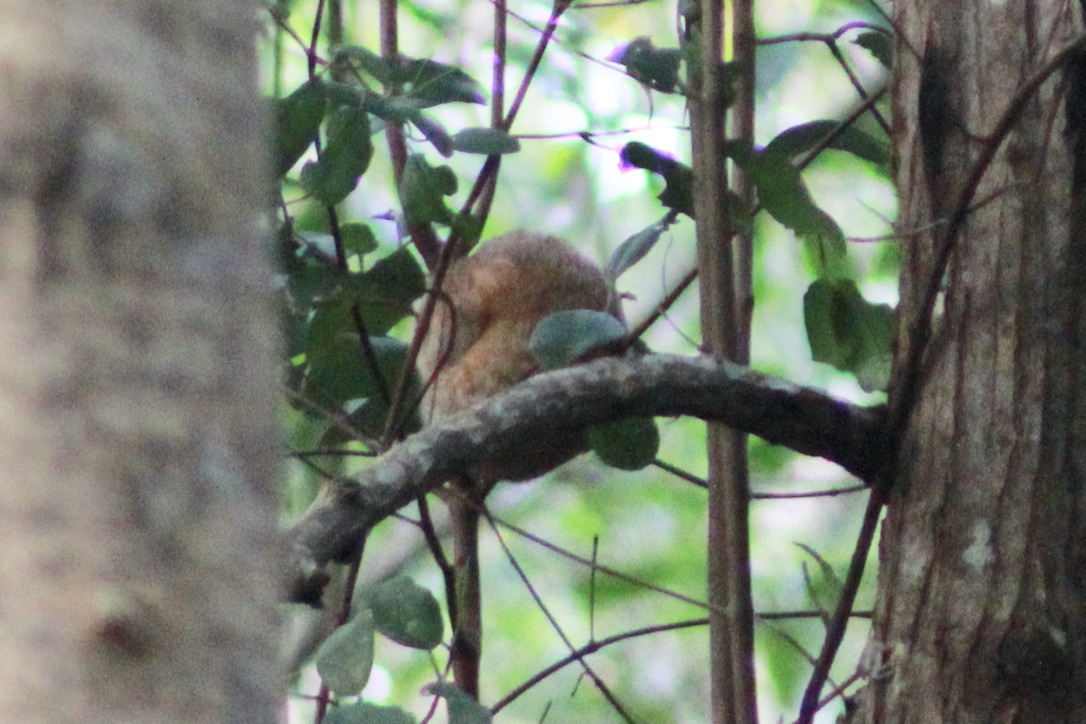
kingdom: Animalia
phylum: Chordata
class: Mammalia
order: Pilosa
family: Cyclopedidae
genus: Cyclopes
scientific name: Cyclopes didactylus
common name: Silky anteater
